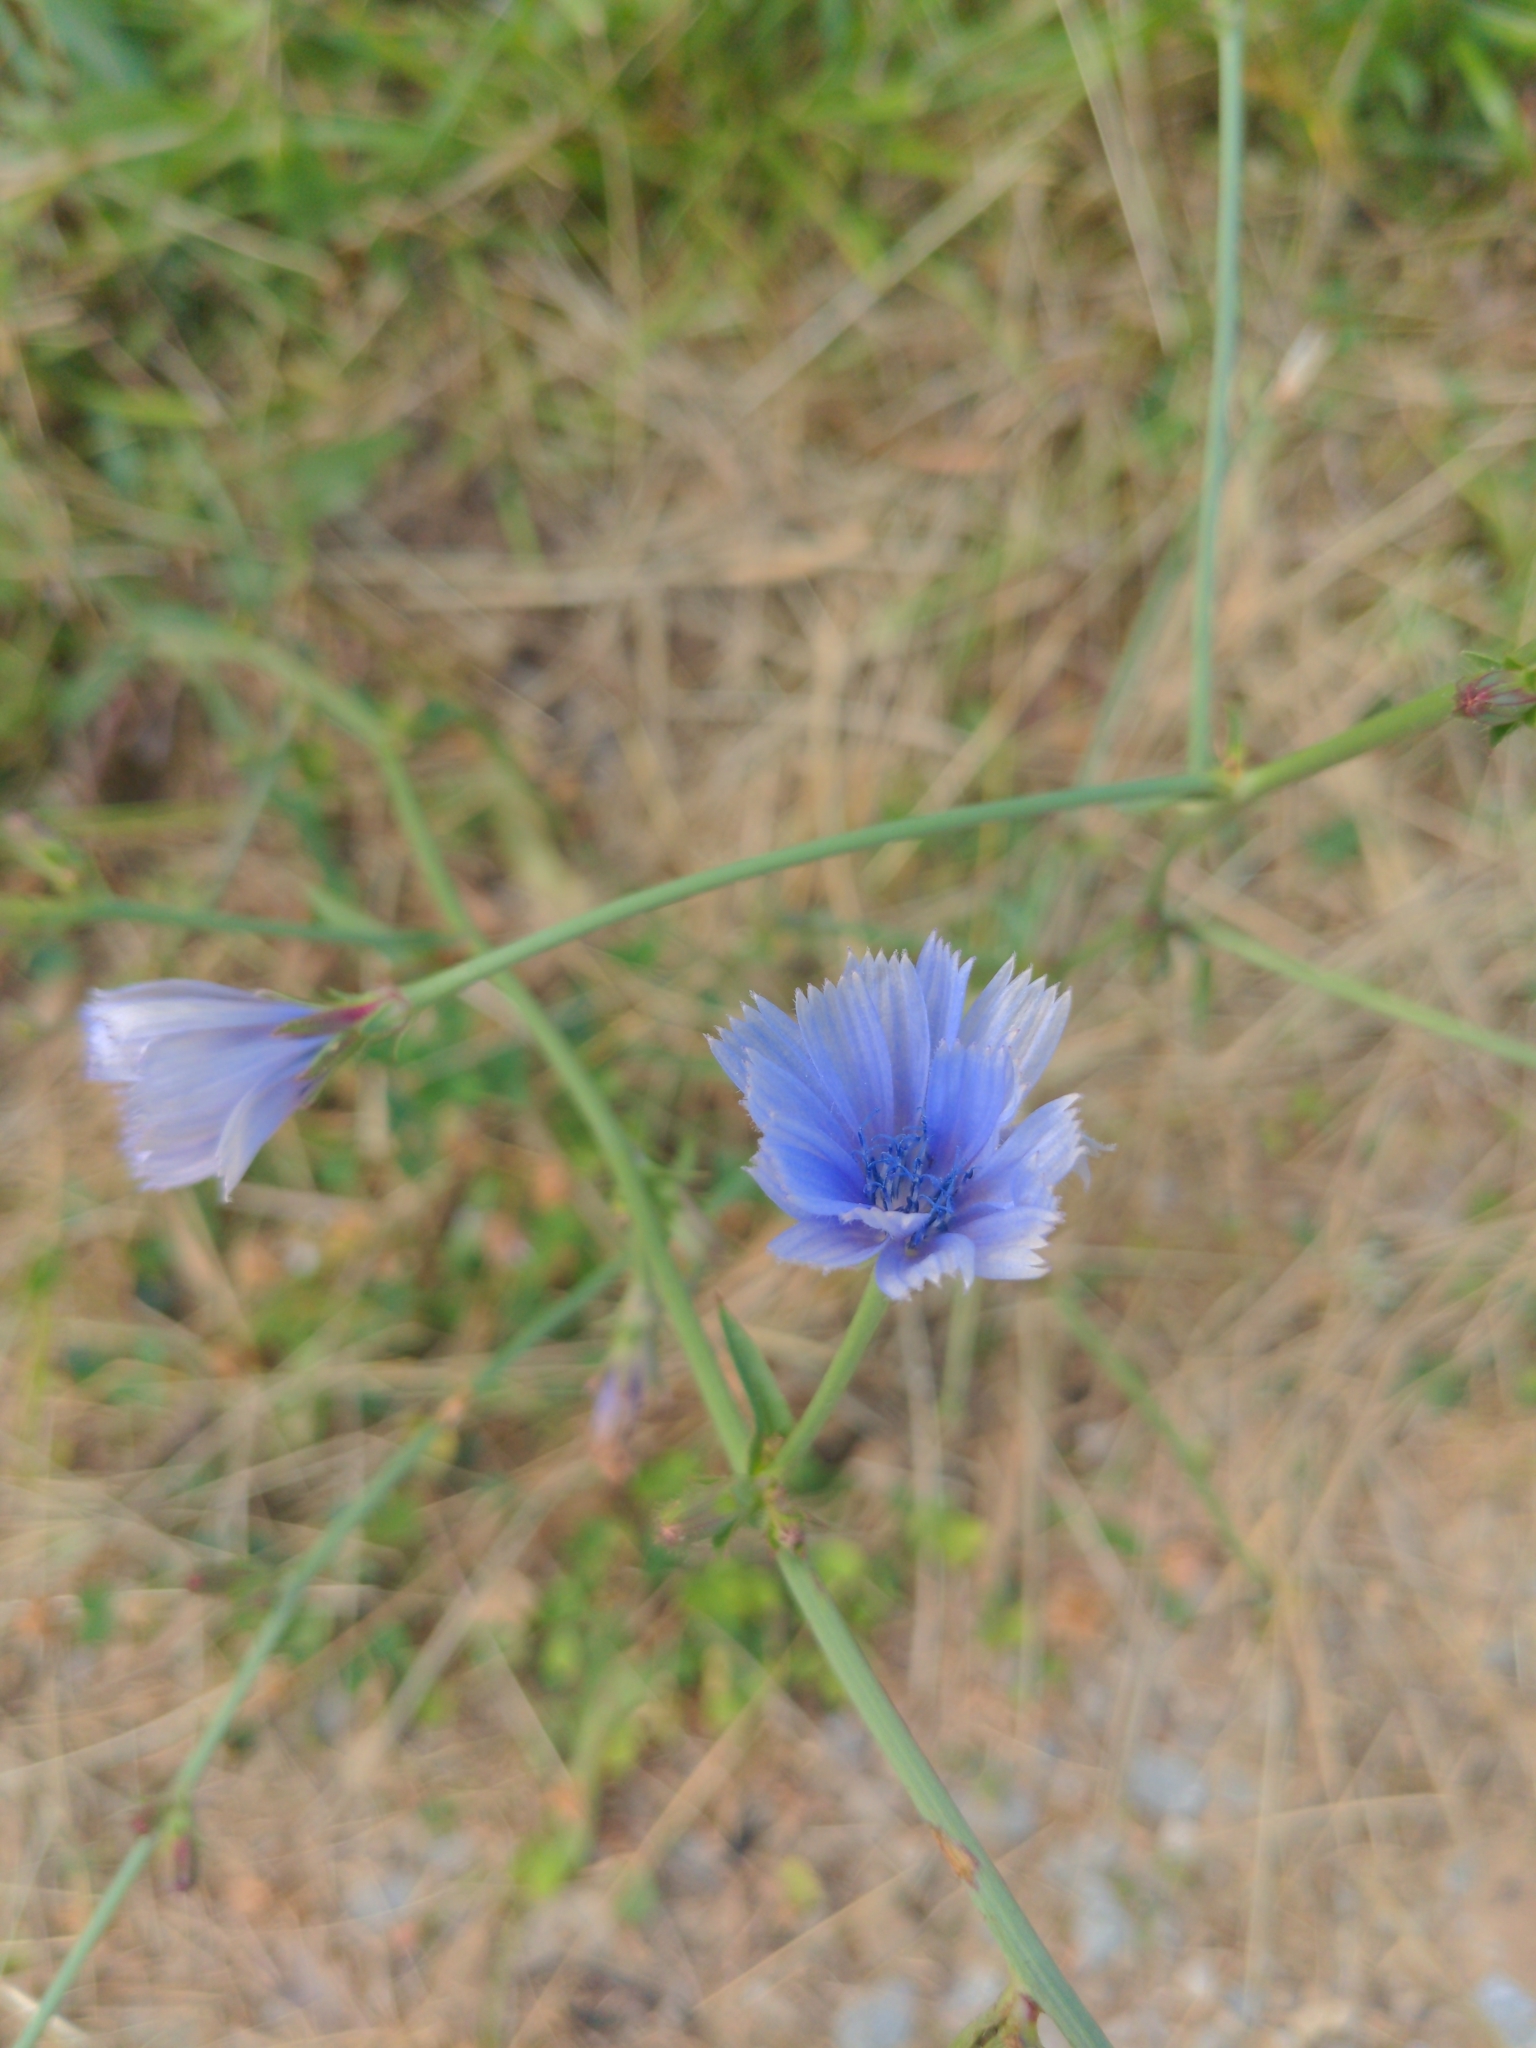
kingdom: Plantae
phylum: Tracheophyta
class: Magnoliopsida
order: Asterales
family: Asteraceae
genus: Cichorium
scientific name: Cichorium intybus
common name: Chicory
